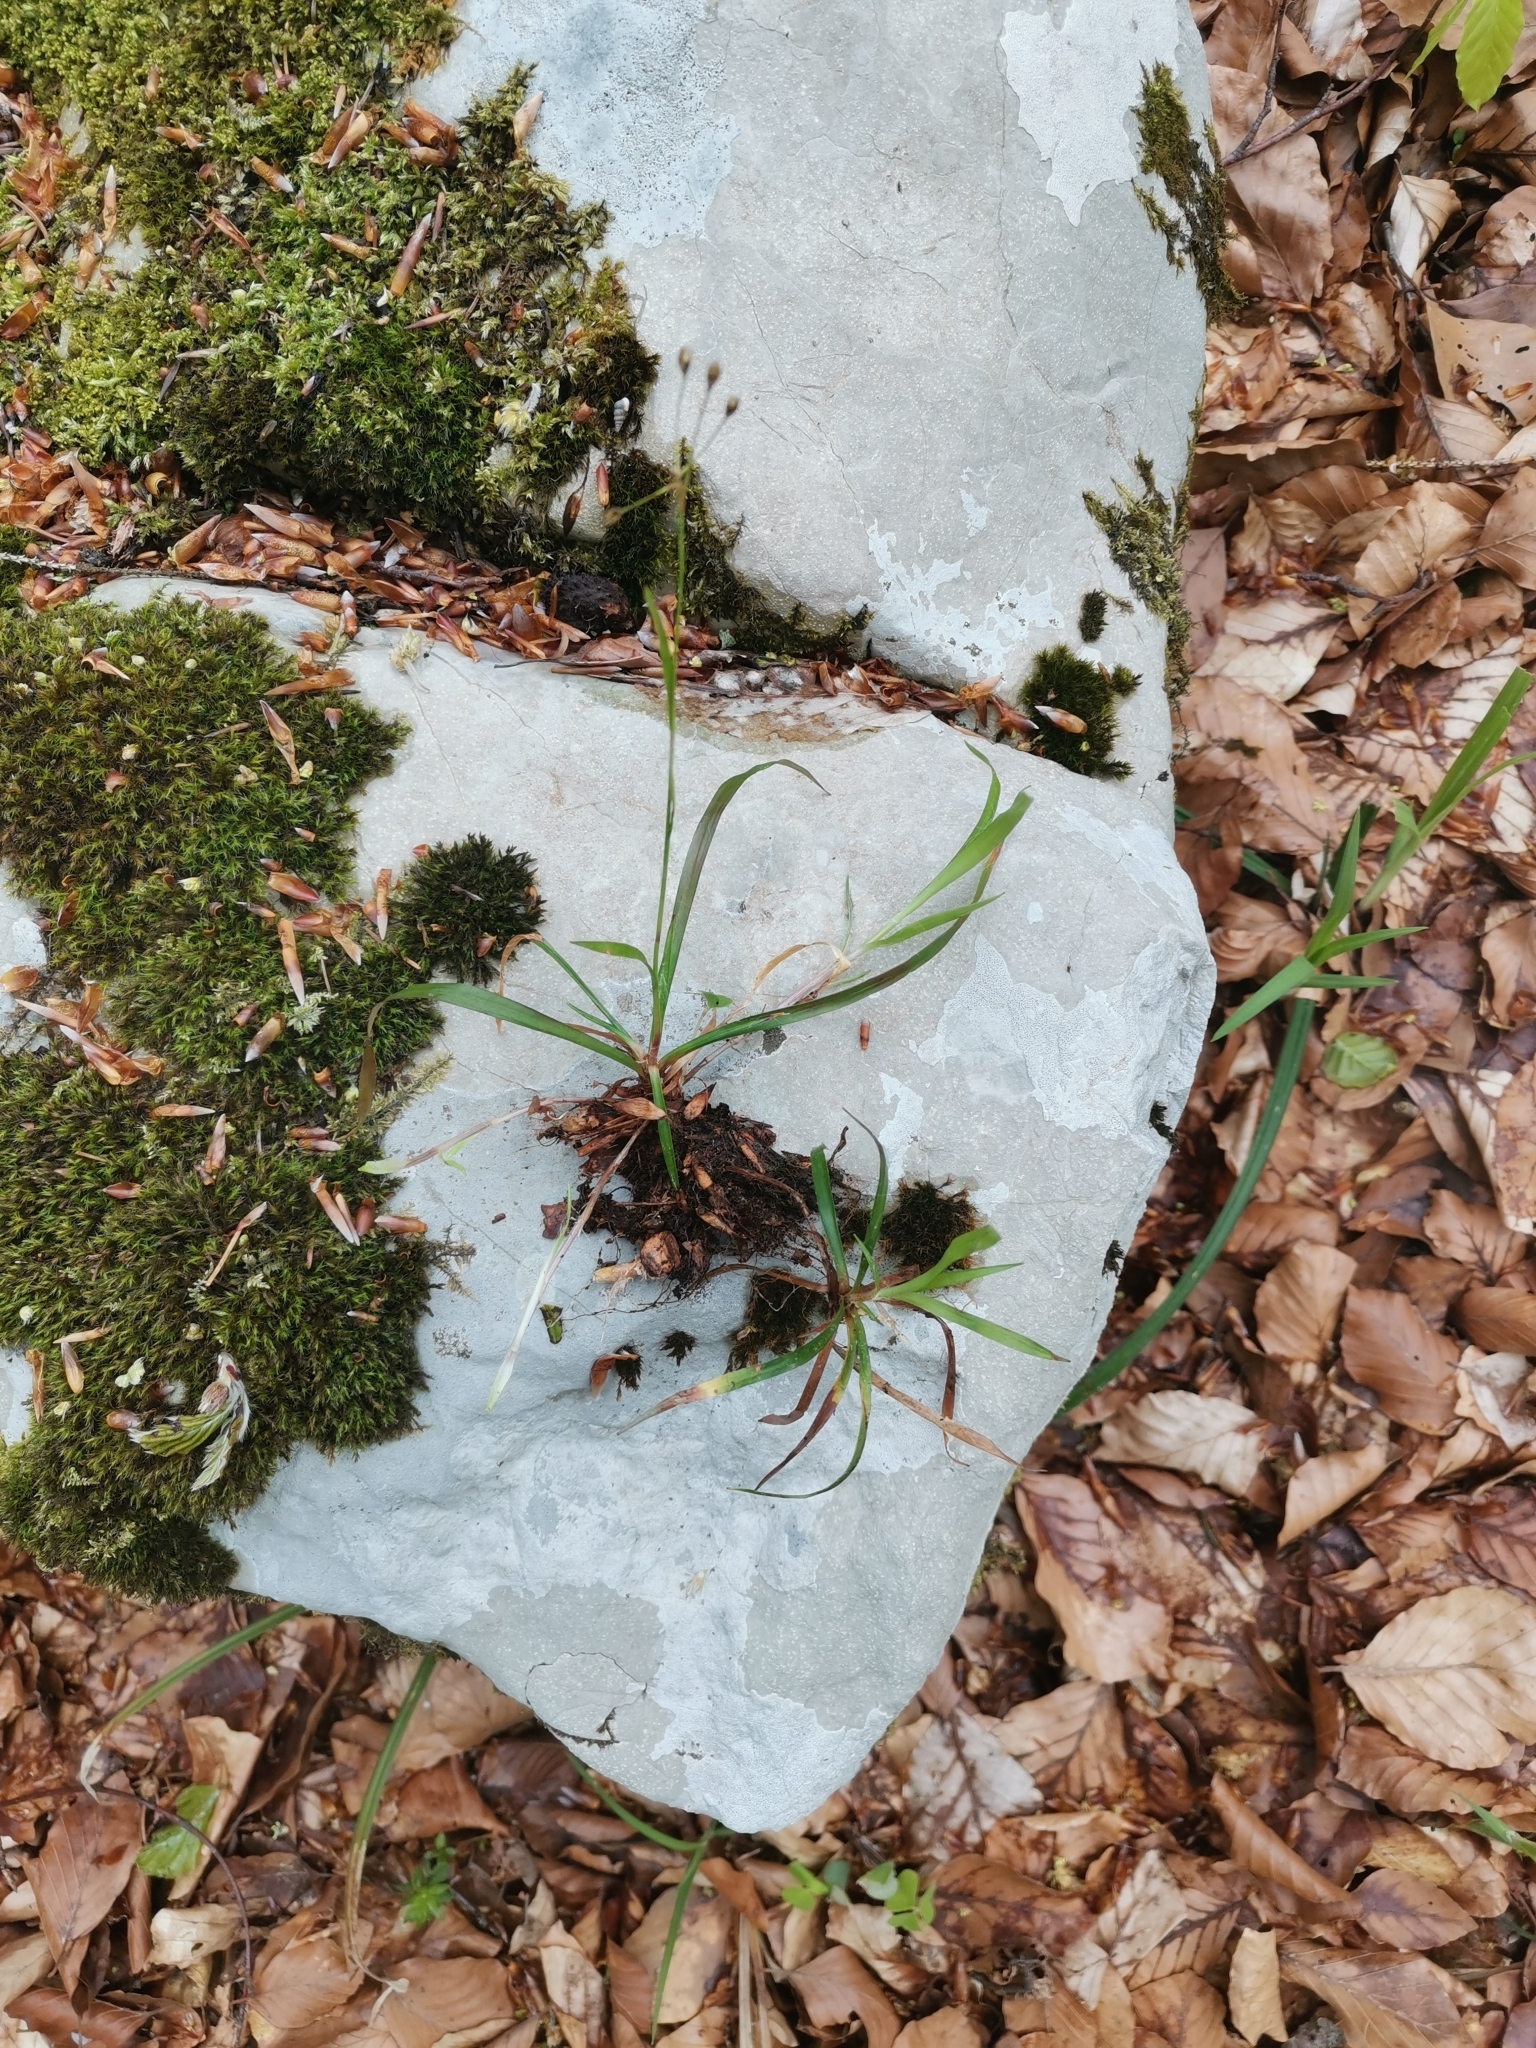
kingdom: Plantae
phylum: Tracheophyta
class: Liliopsida
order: Poales
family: Juncaceae
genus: Luzula
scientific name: Luzula pilosa
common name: Hairy wood-rush
